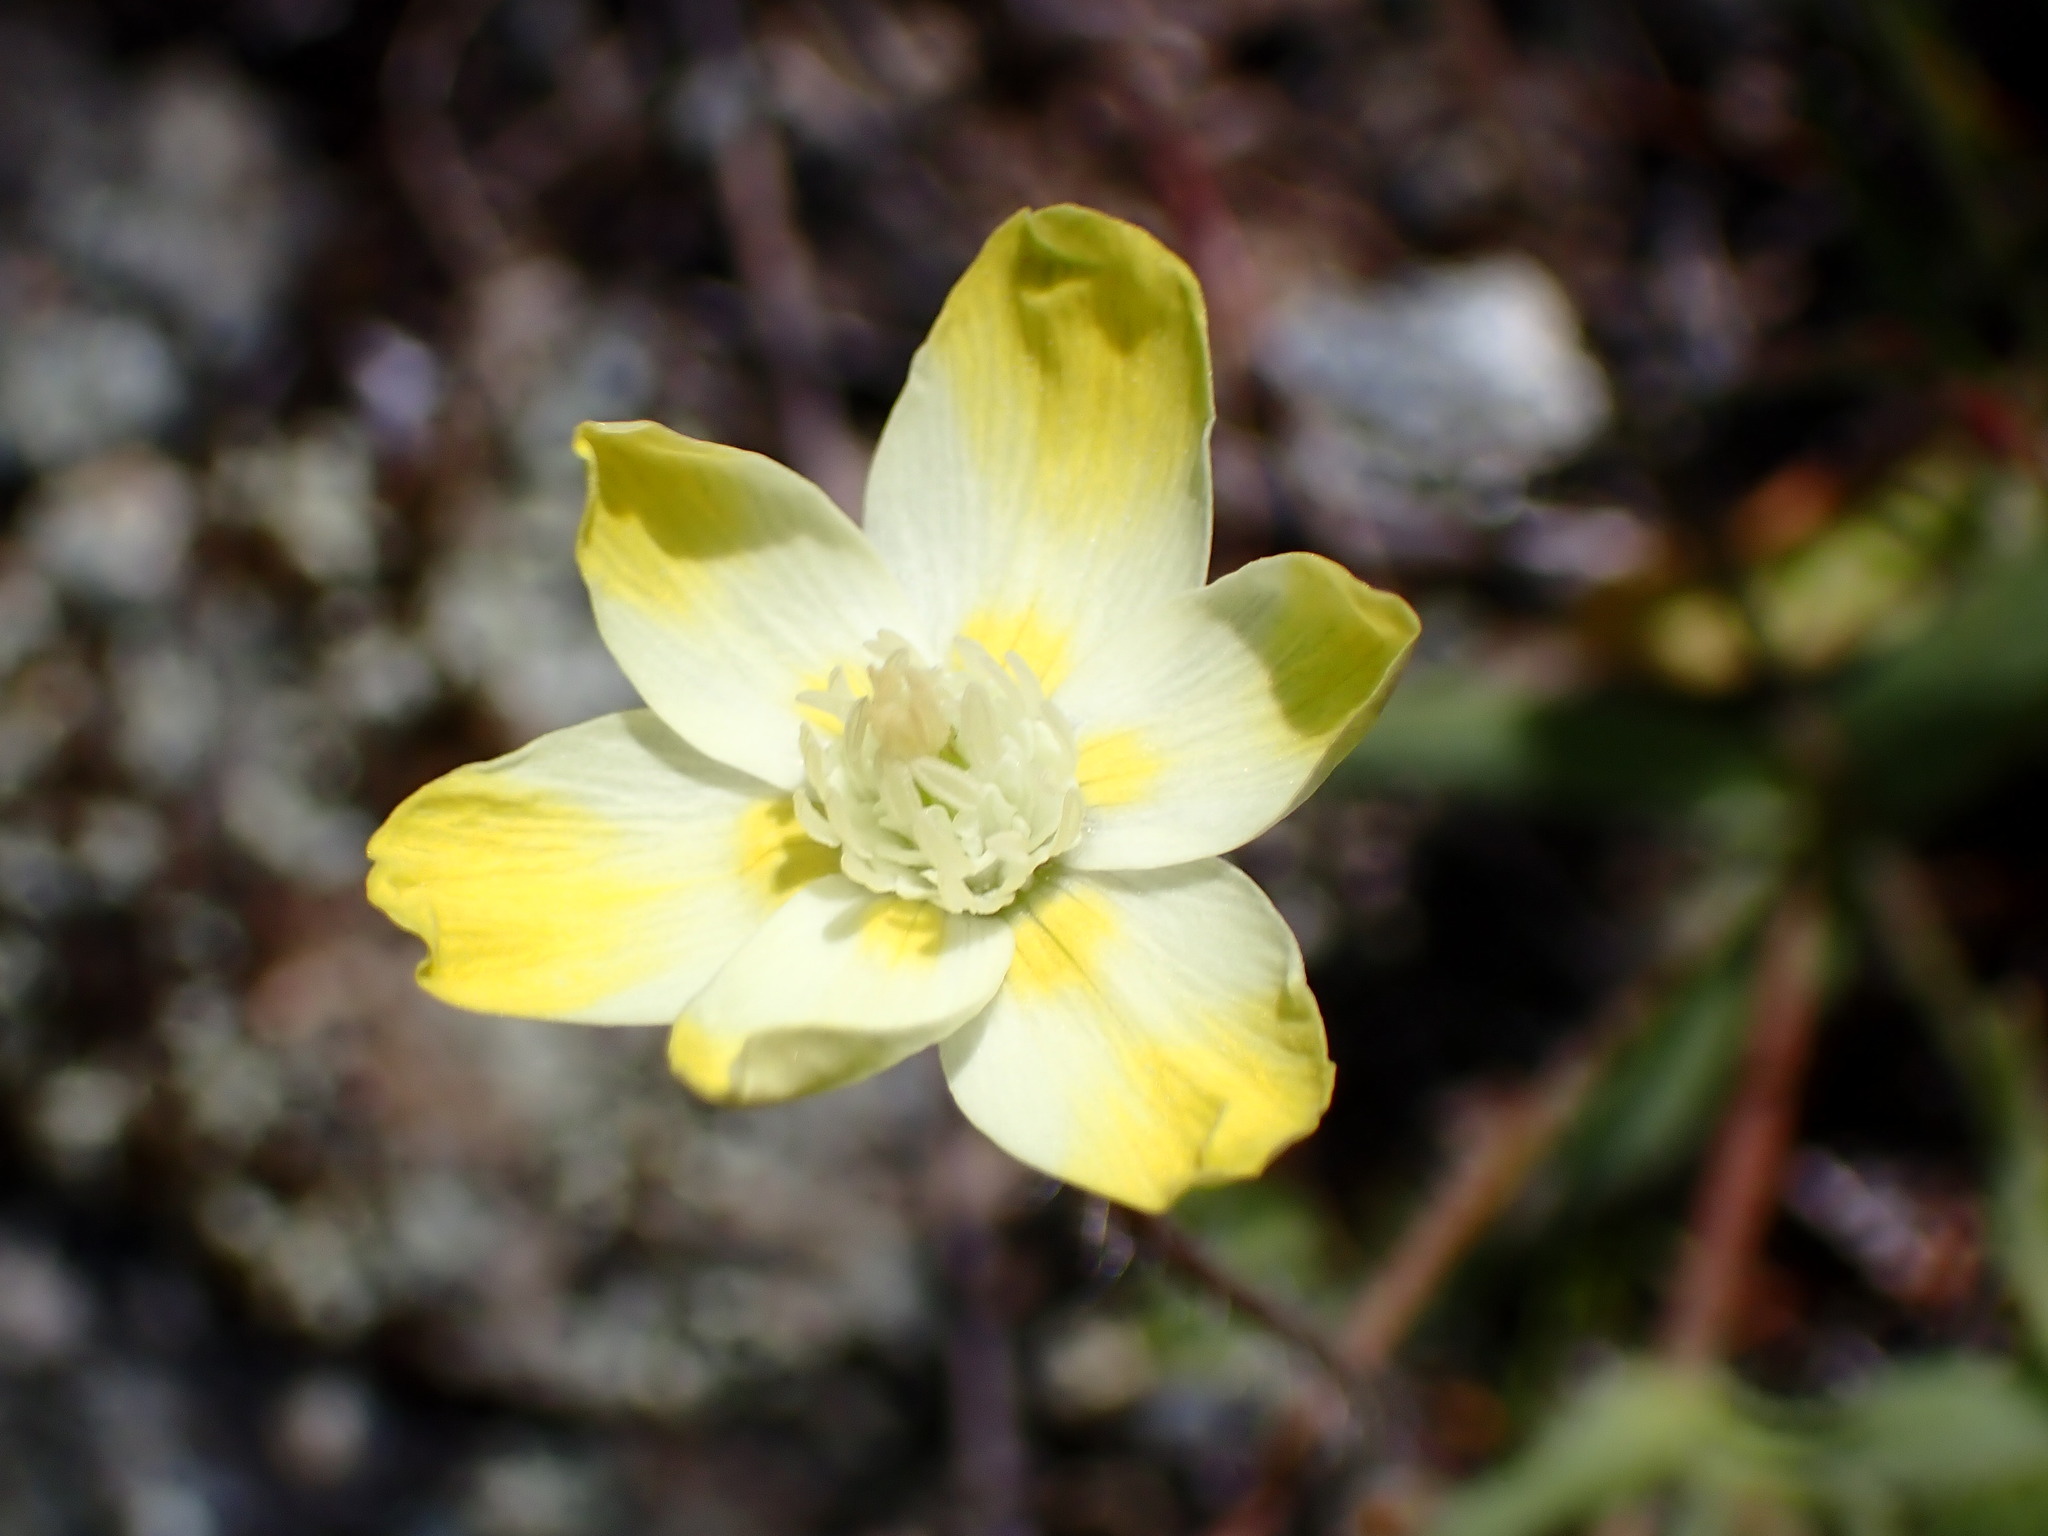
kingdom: Plantae
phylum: Tracheophyta
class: Magnoliopsida
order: Ranunculales
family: Papaveraceae
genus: Platystemon
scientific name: Platystemon californicus
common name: Cream-cups
